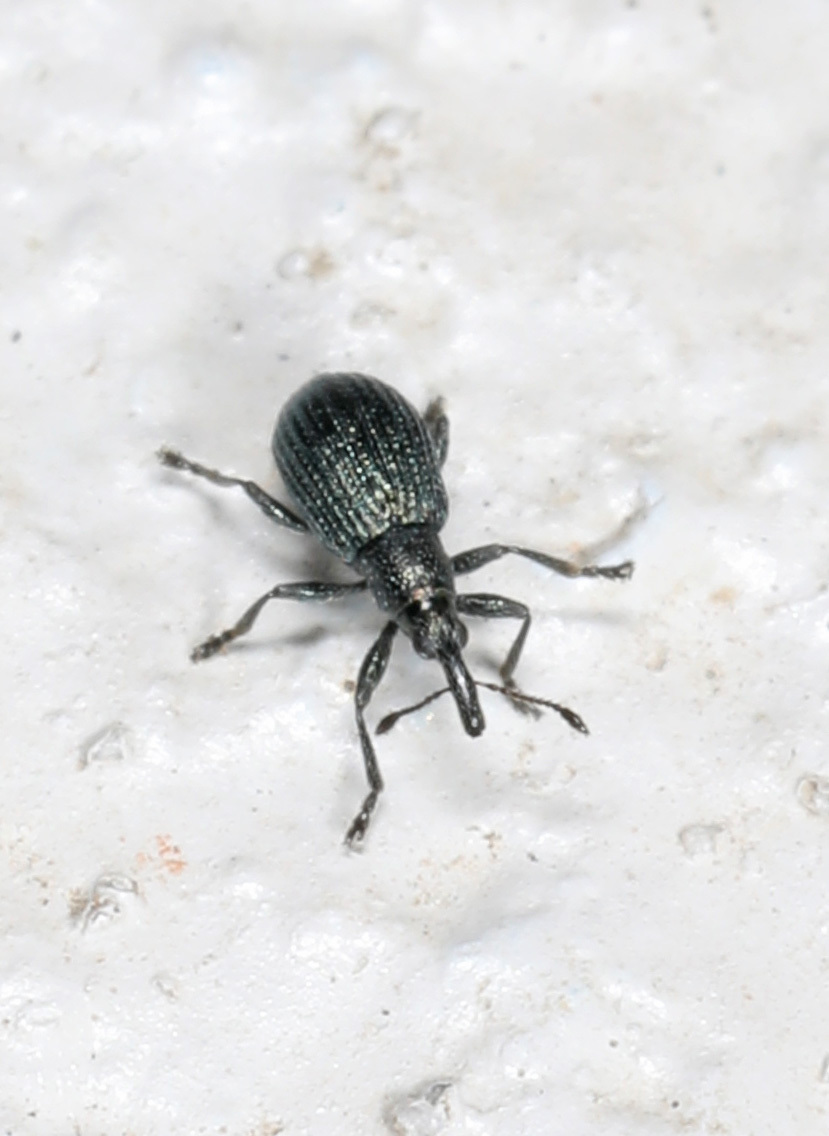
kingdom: Animalia
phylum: Arthropoda
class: Insecta
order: Coleoptera
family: Apionidae
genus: Ischnopterapion
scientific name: Ischnopterapion virens
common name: White clover weevil
